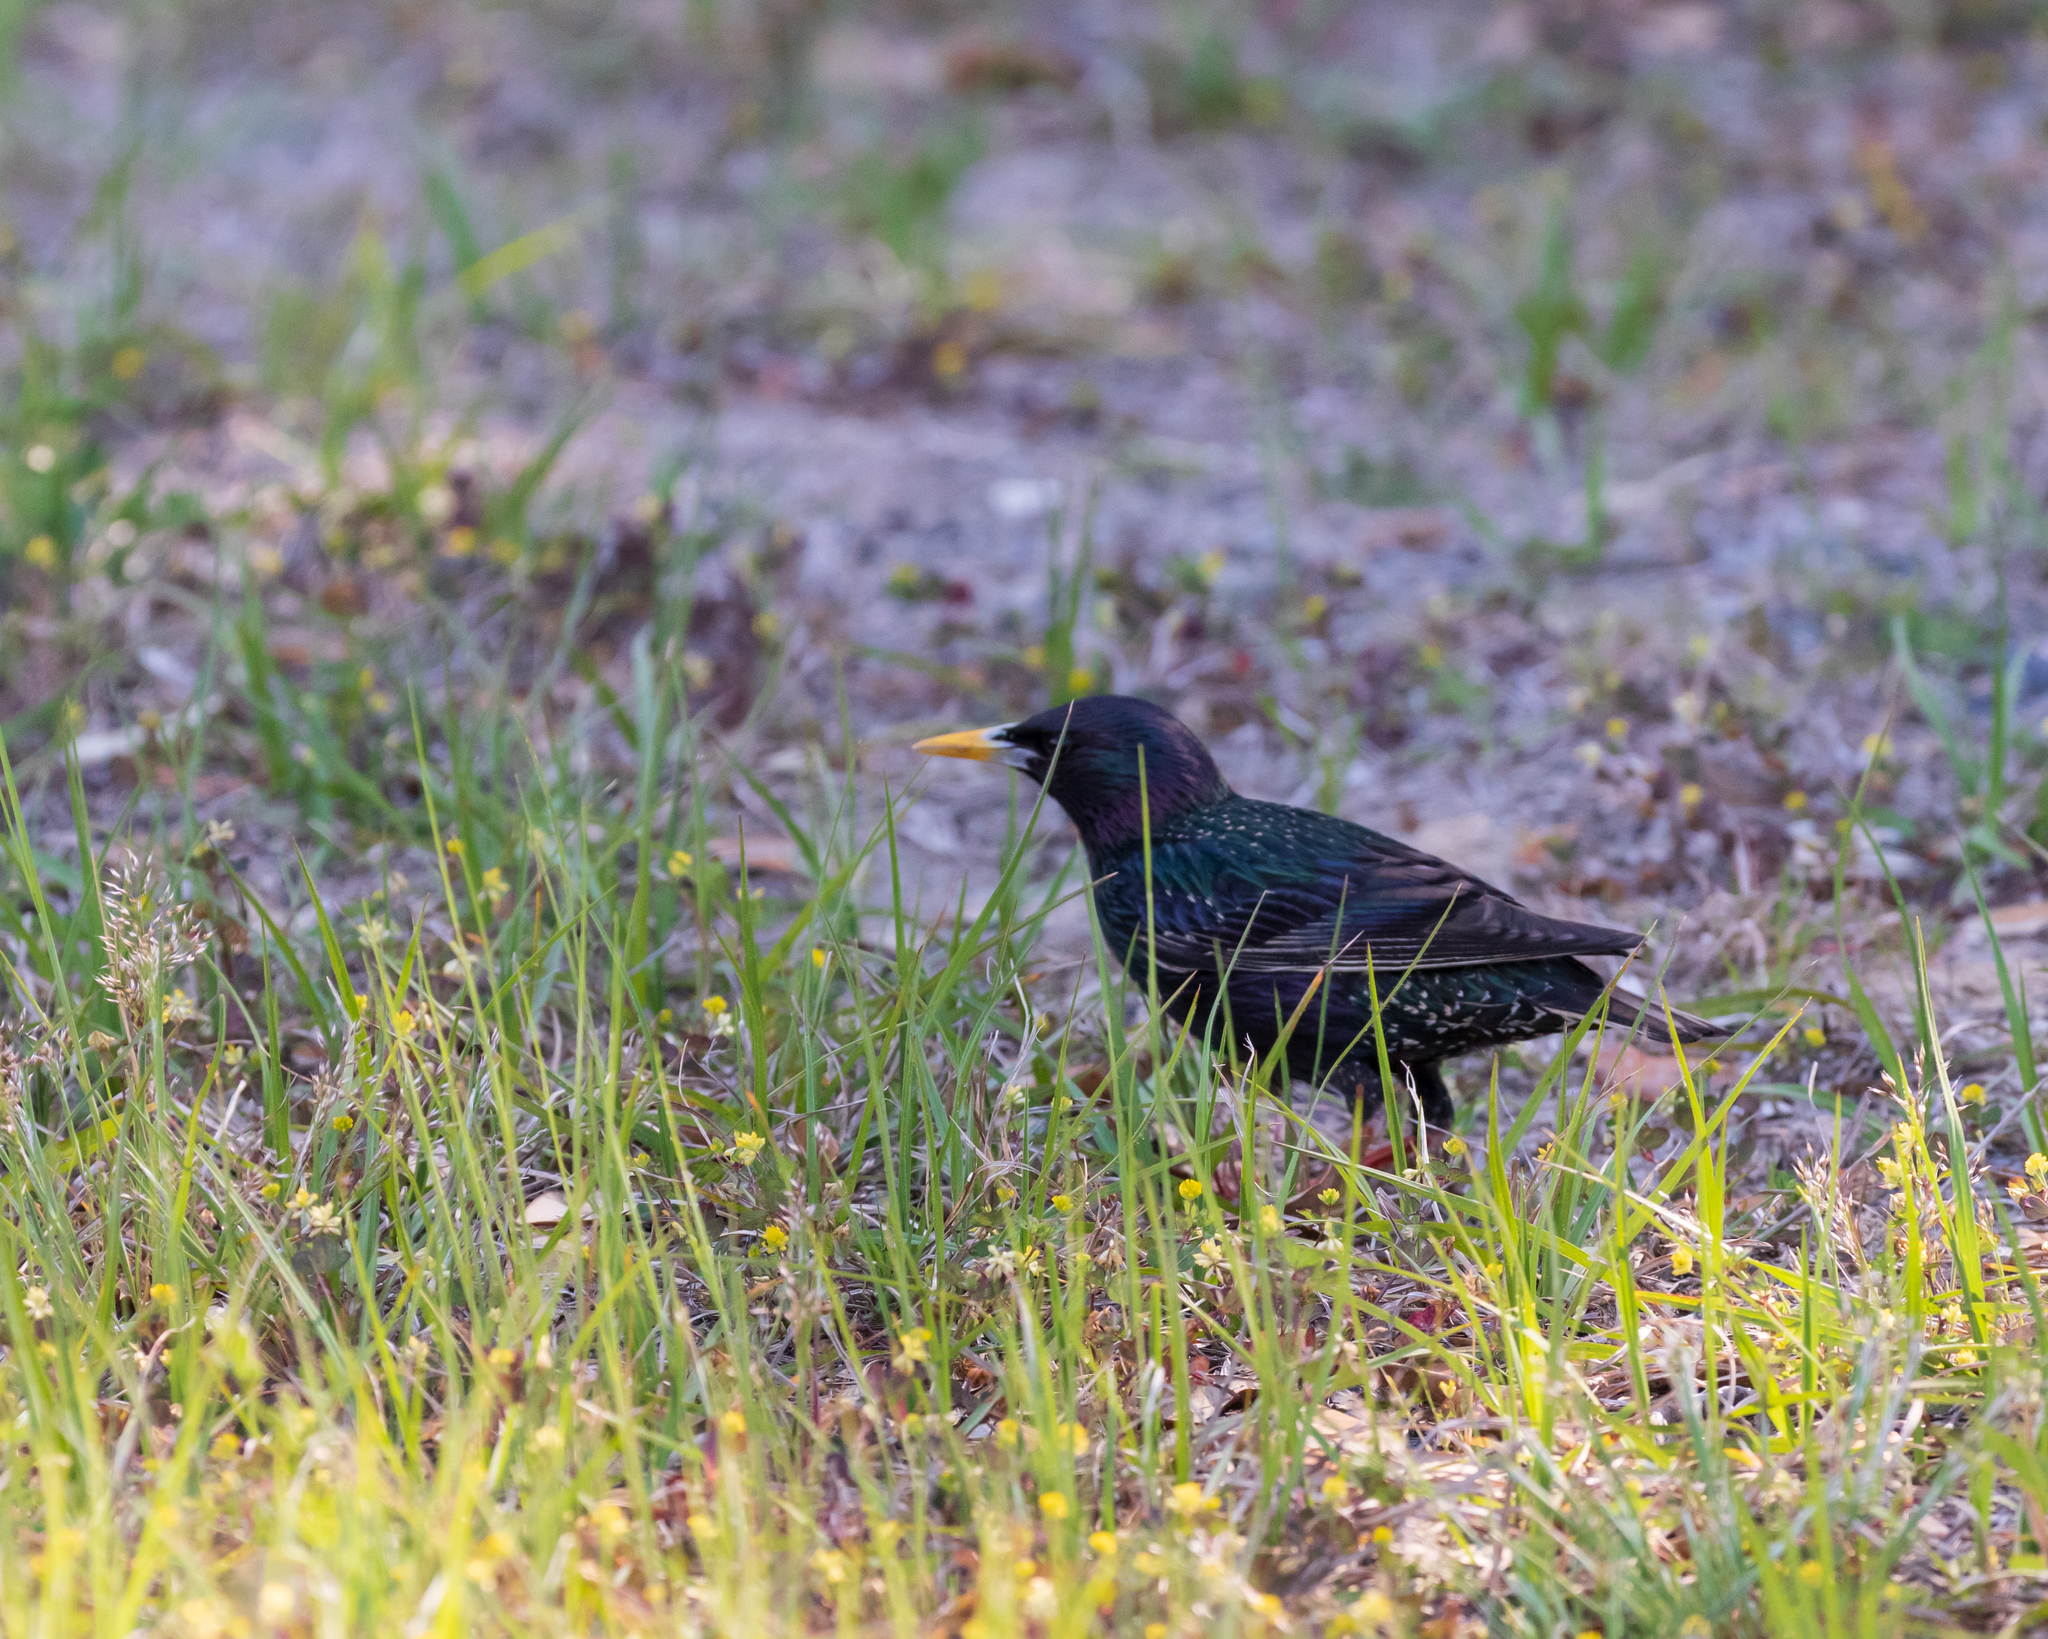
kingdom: Animalia
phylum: Chordata
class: Aves
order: Passeriformes
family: Sturnidae
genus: Sturnus
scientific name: Sturnus vulgaris
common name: Common starling
